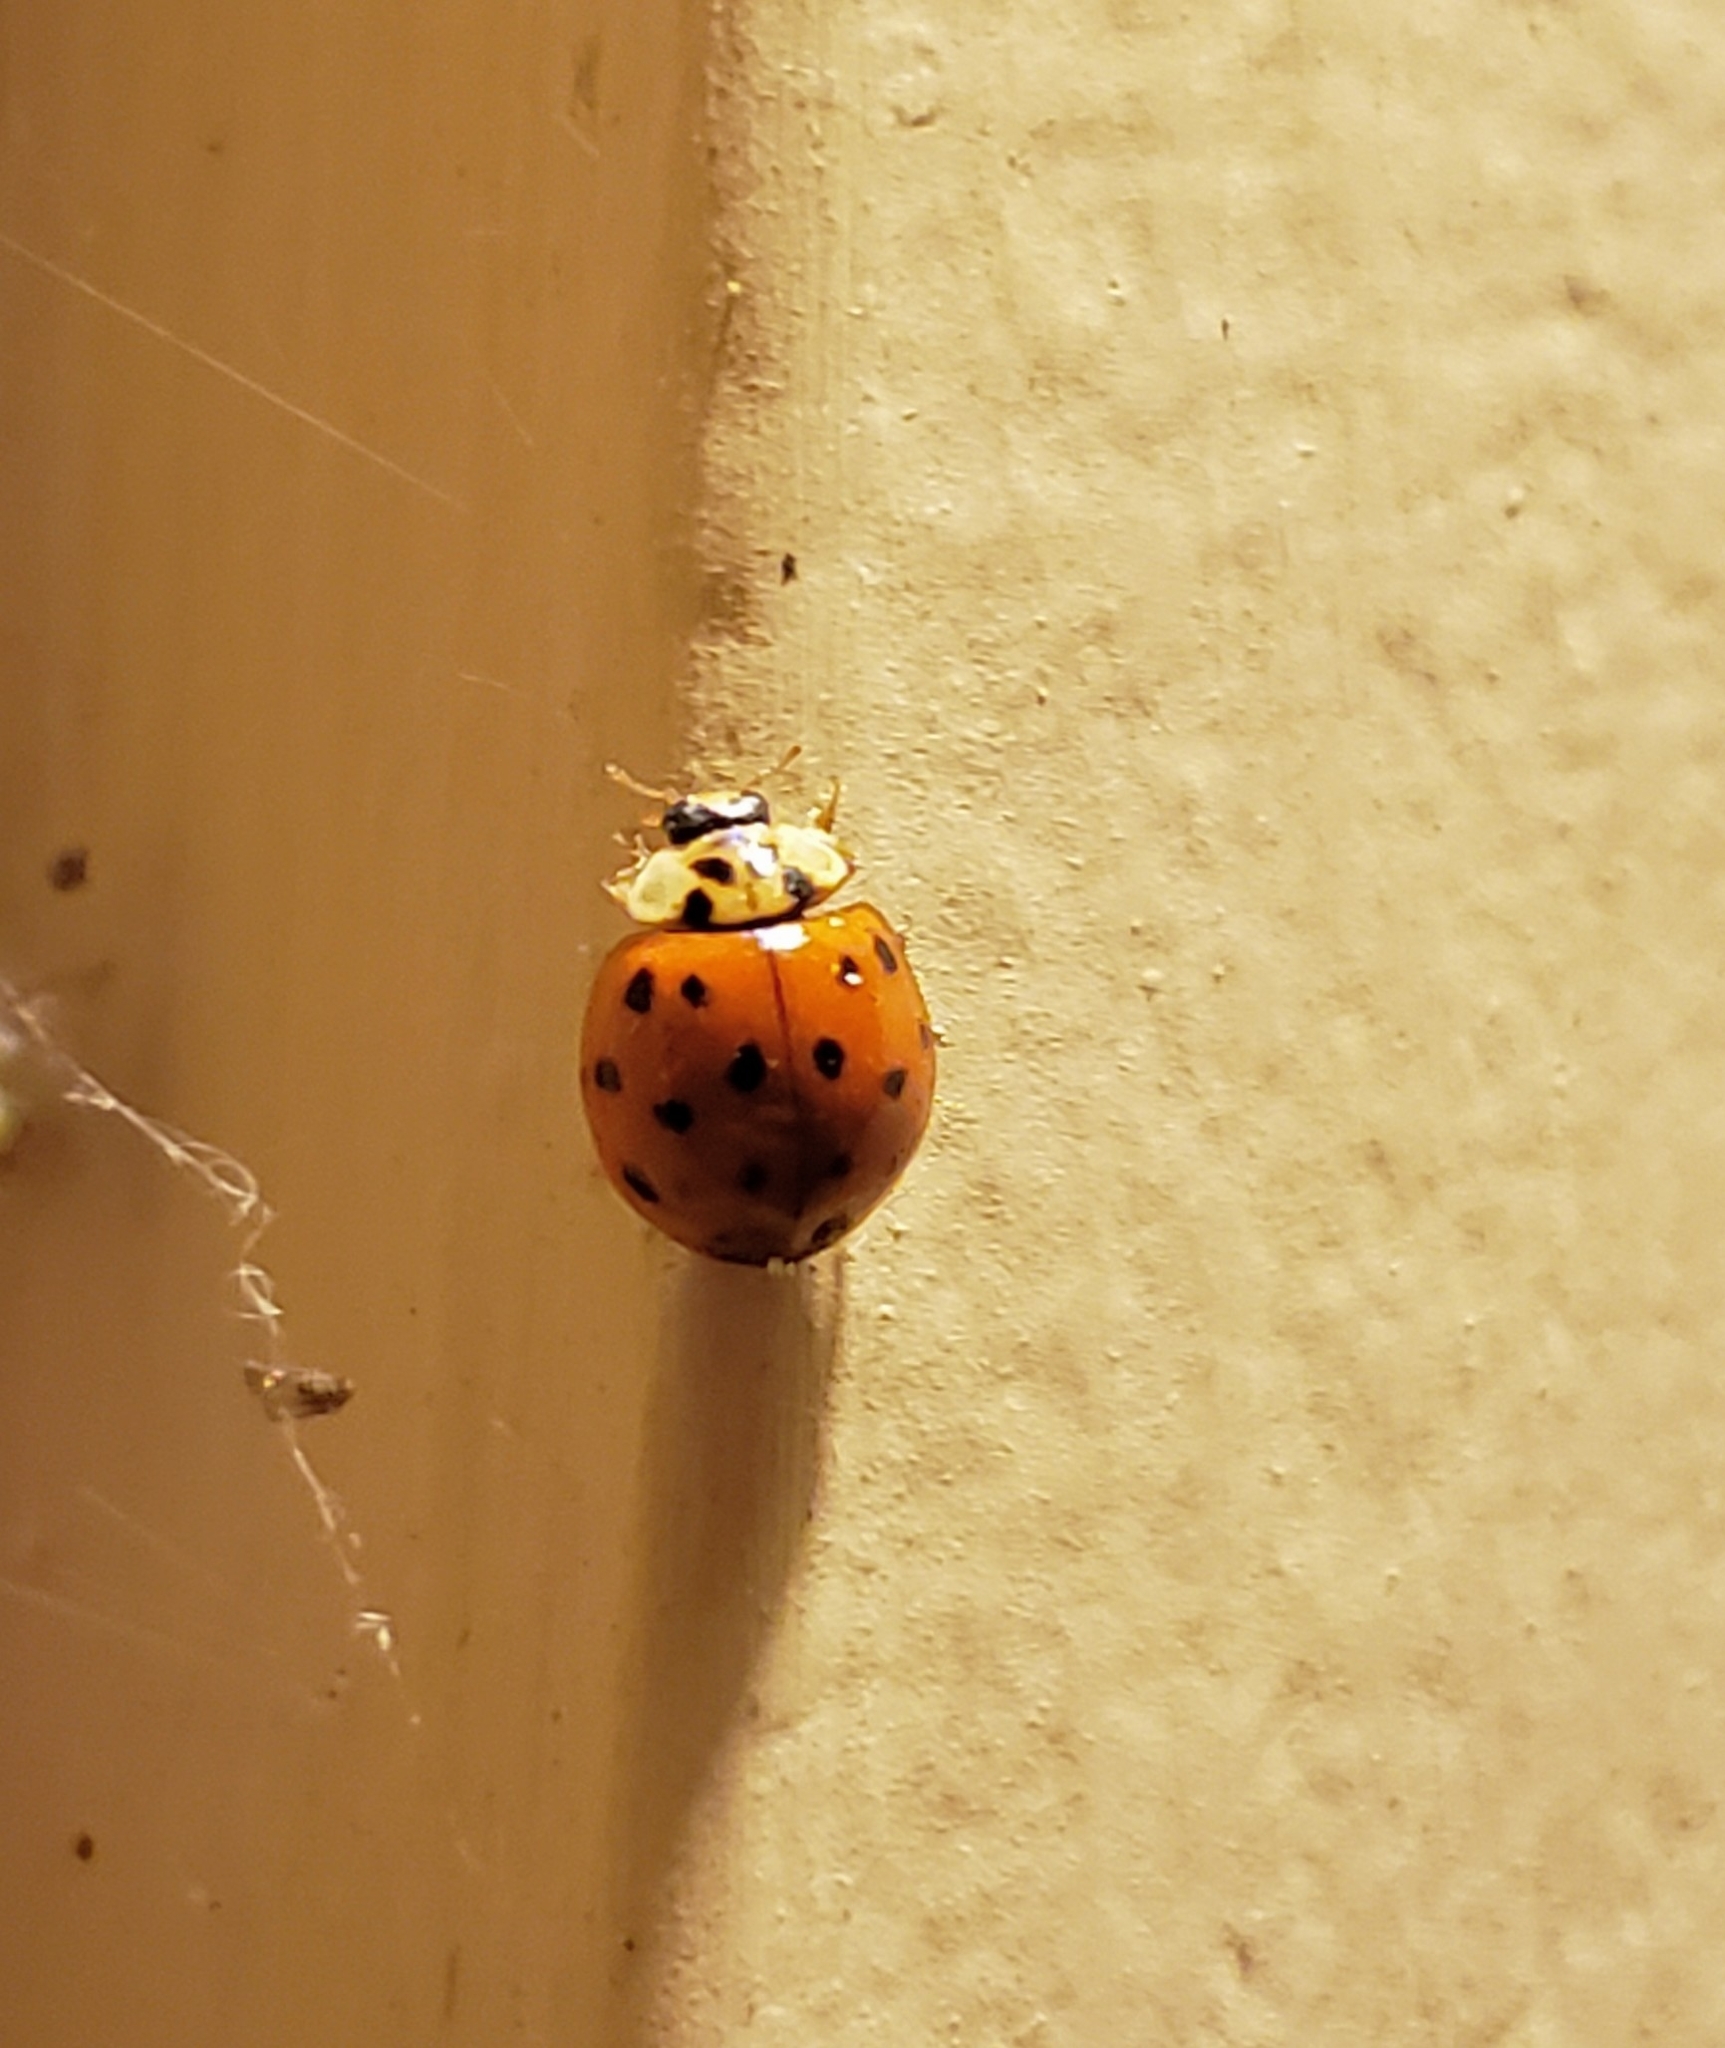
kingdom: Animalia
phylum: Arthropoda
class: Insecta
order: Coleoptera
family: Coccinellidae
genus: Harmonia
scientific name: Harmonia axyridis
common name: Harlequin ladybird
